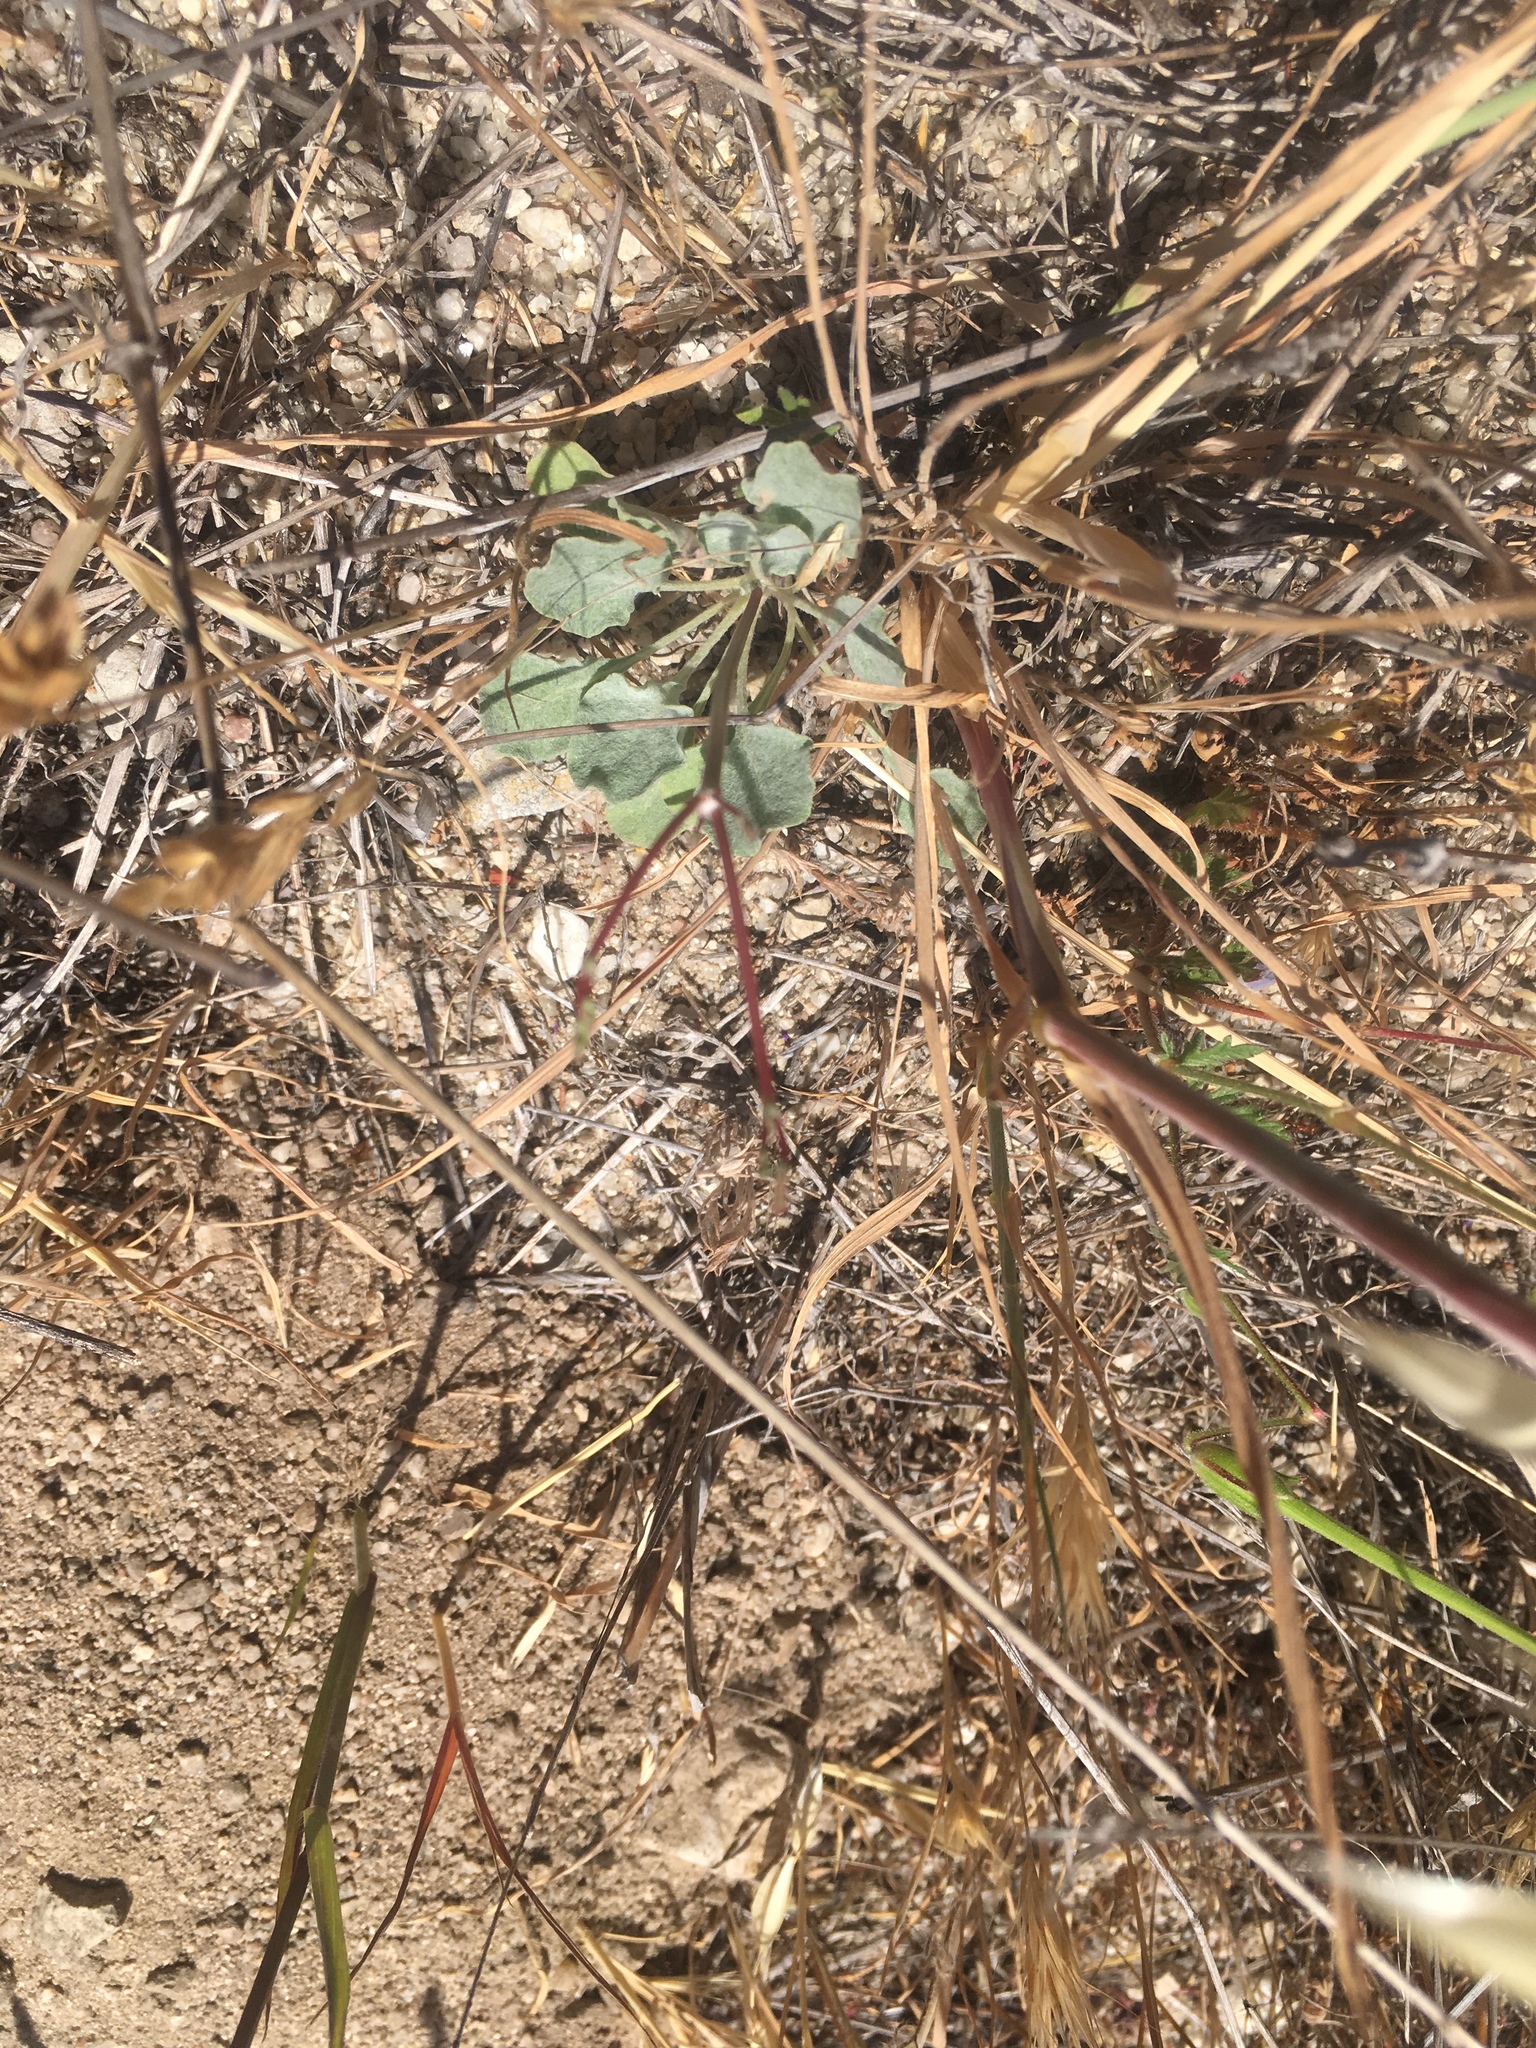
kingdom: Plantae
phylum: Tracheophyta
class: Magnoliopsida
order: Caryophyllales
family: Polygonaceae
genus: Eriogonum
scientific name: Eriogonum elegans
